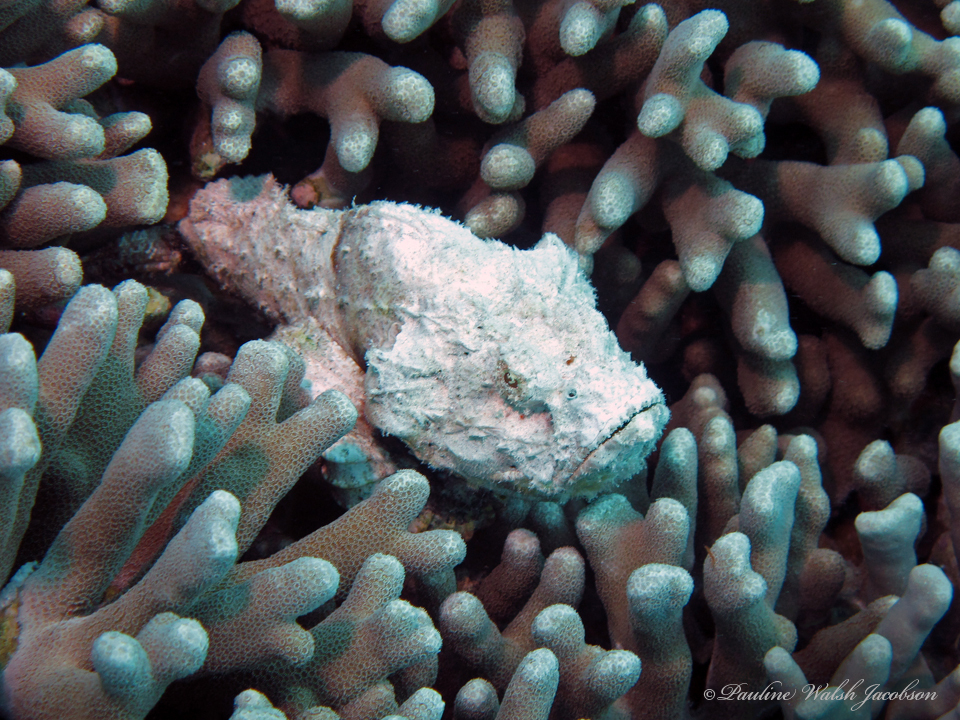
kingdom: Animalia
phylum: Chordata
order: Scorpaeniformes
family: Scorpaenidae
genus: Scorpaenopsis
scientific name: Scorpaenopsis macrochir
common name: Flasher scorpionfish
